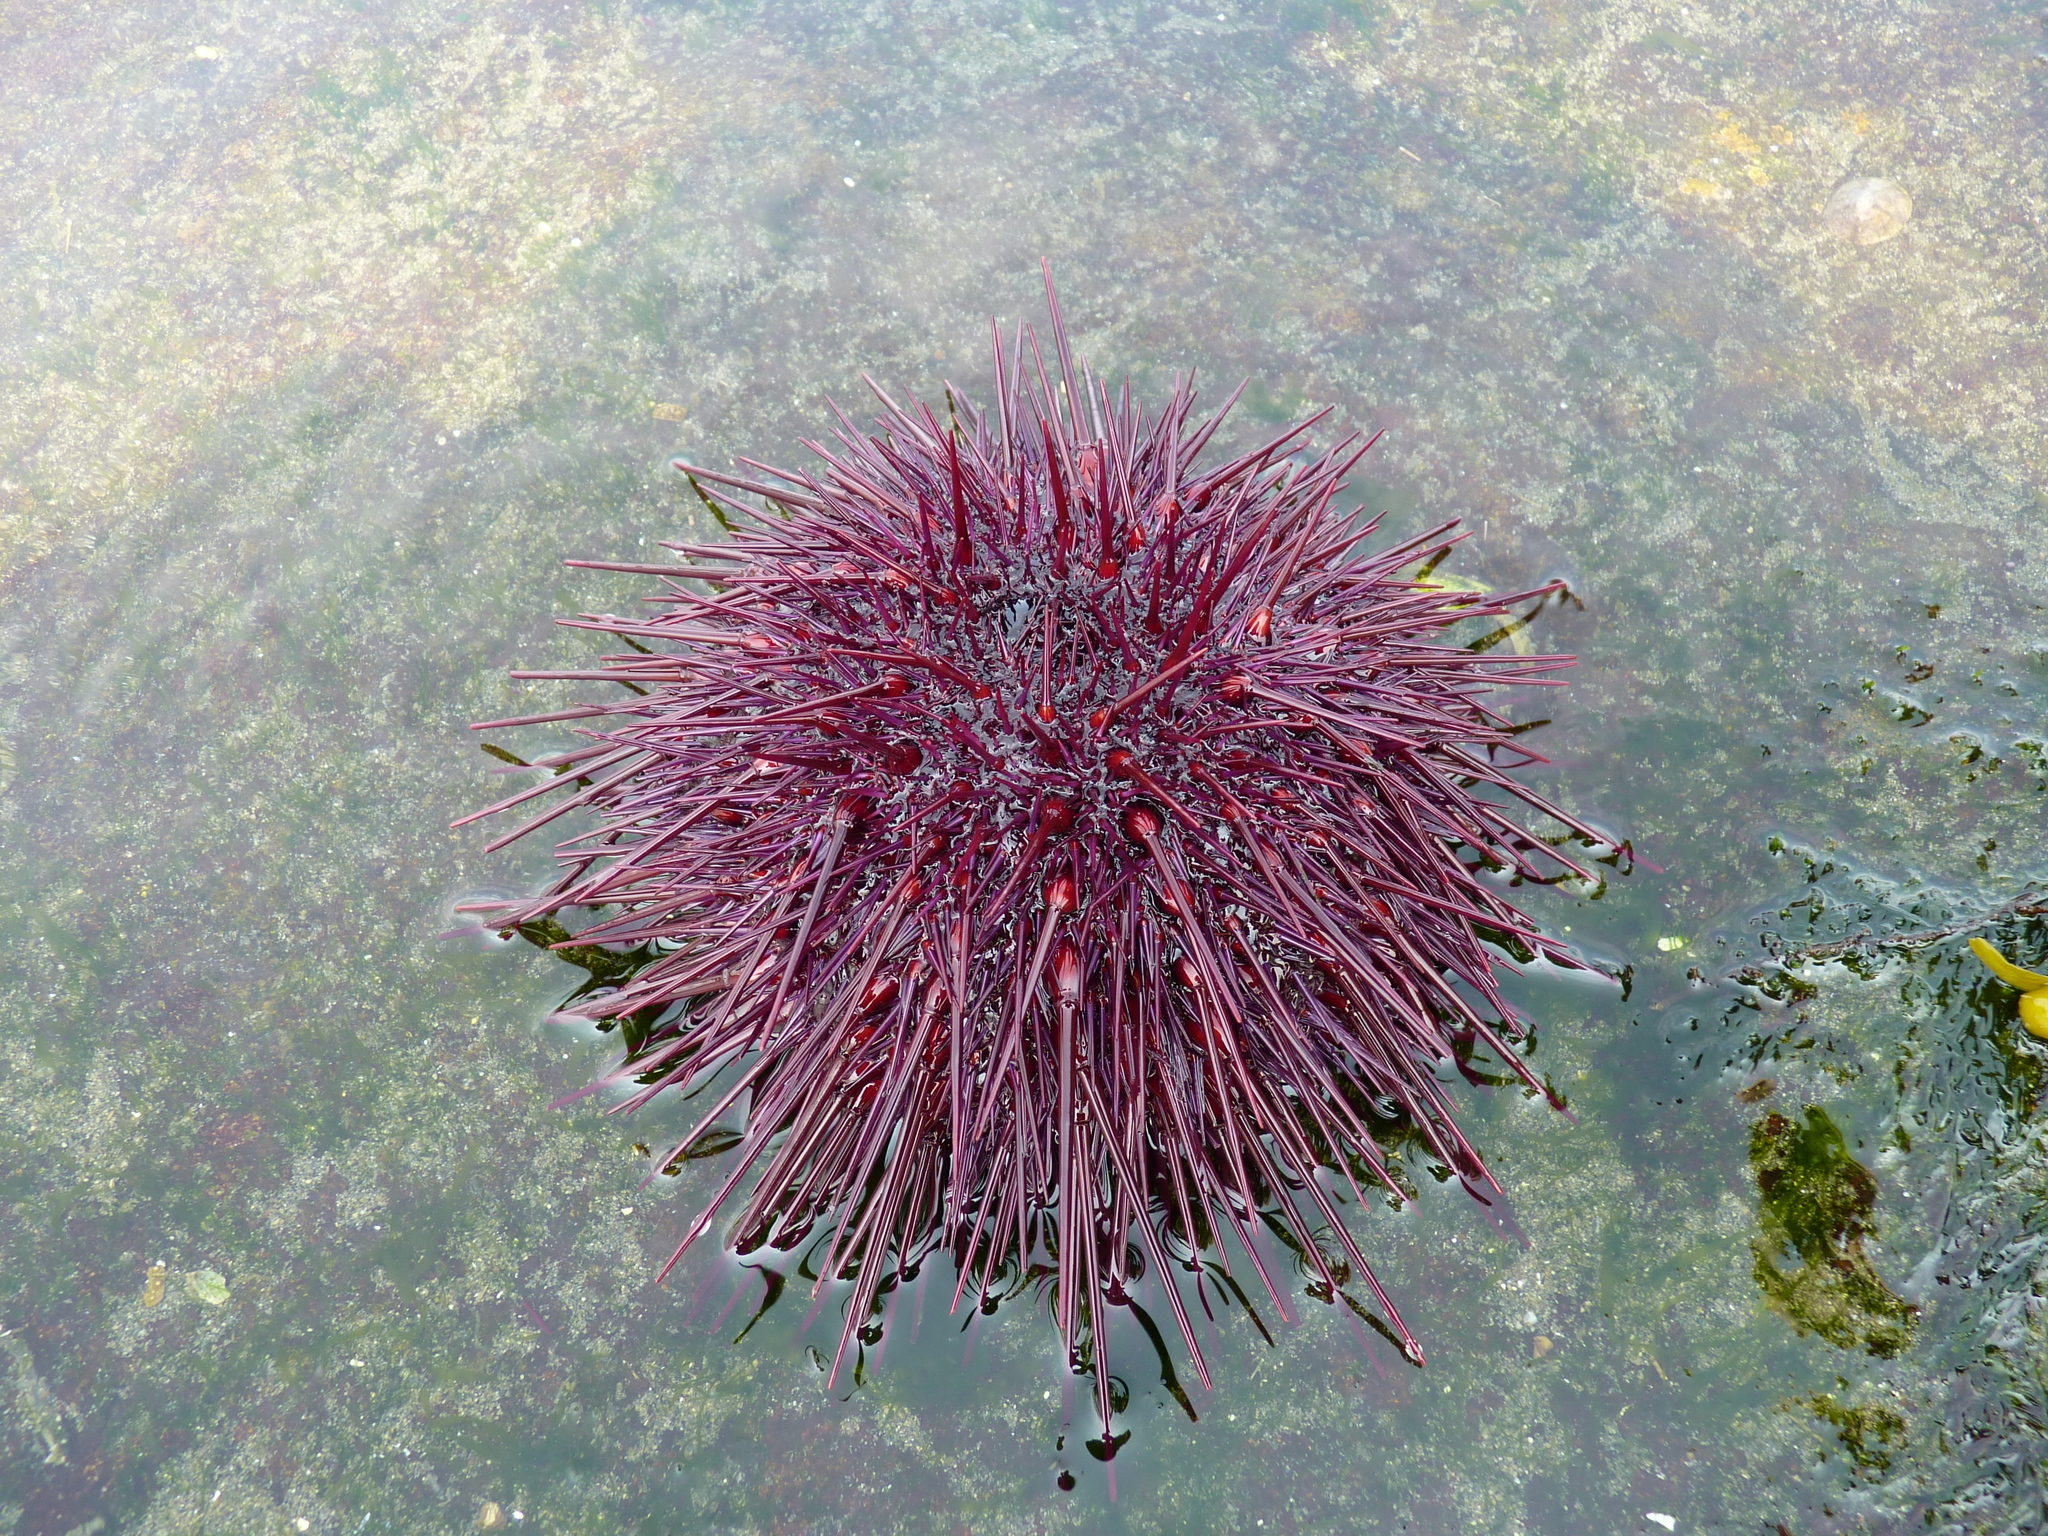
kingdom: Animalia
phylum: Echinodermata
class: Echinoidea
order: Camarodonta
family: Strongylocentrotidae
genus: Mesocentrotus
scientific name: Mesocentrotus franciscanus
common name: Red sea urchin
